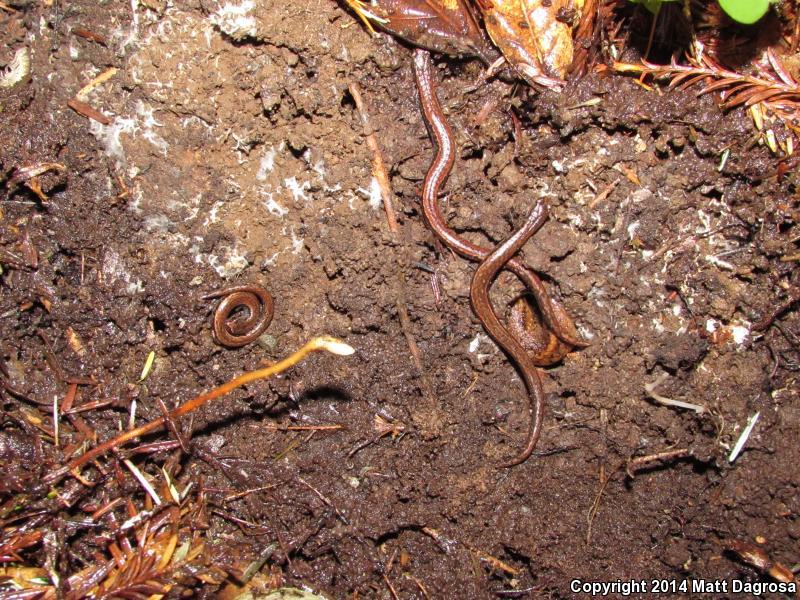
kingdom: Animalia
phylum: Chordata
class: Amphibia
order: Caudata
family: Plethodontidae
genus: Batrachoseps
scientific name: Batrachoseps attenuatus
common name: California slender salamander
